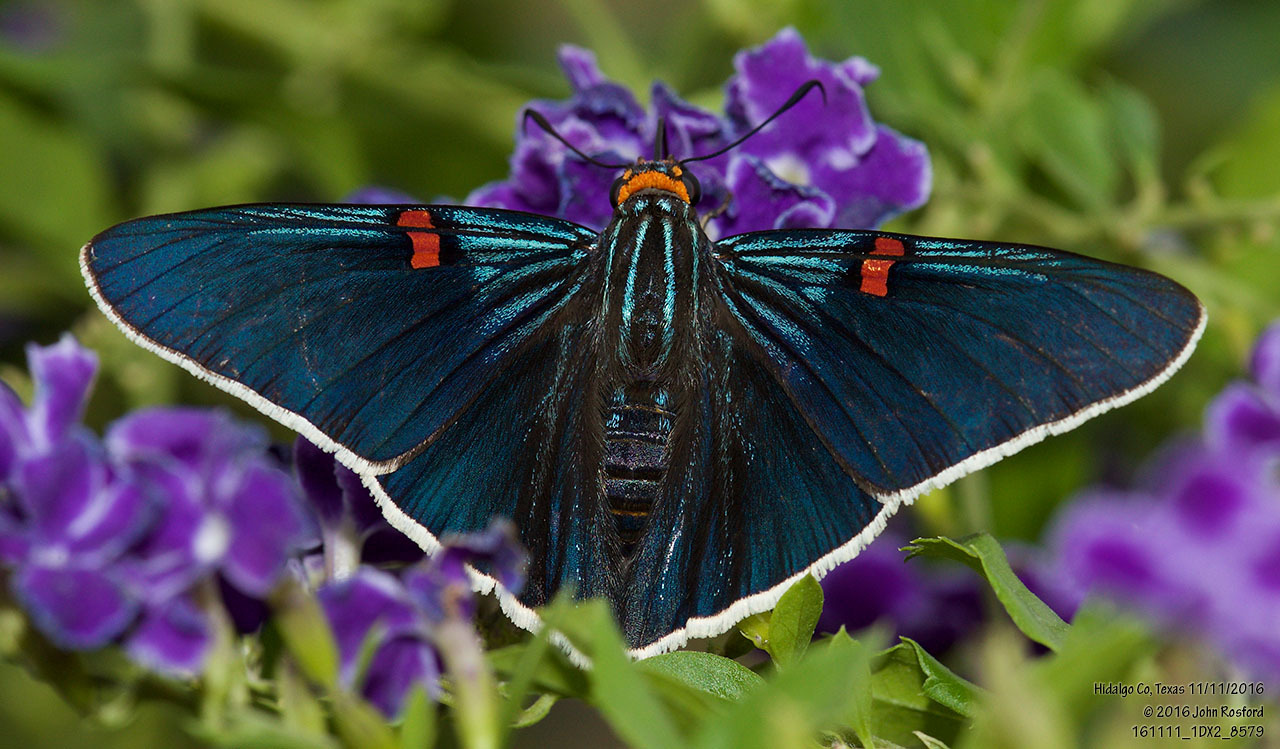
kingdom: Animalia
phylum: Arthropoda
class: Insecta
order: Lepidoptera
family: Hesperiidae
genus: Phocides
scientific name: Phocides lilea
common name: Guava skipper
